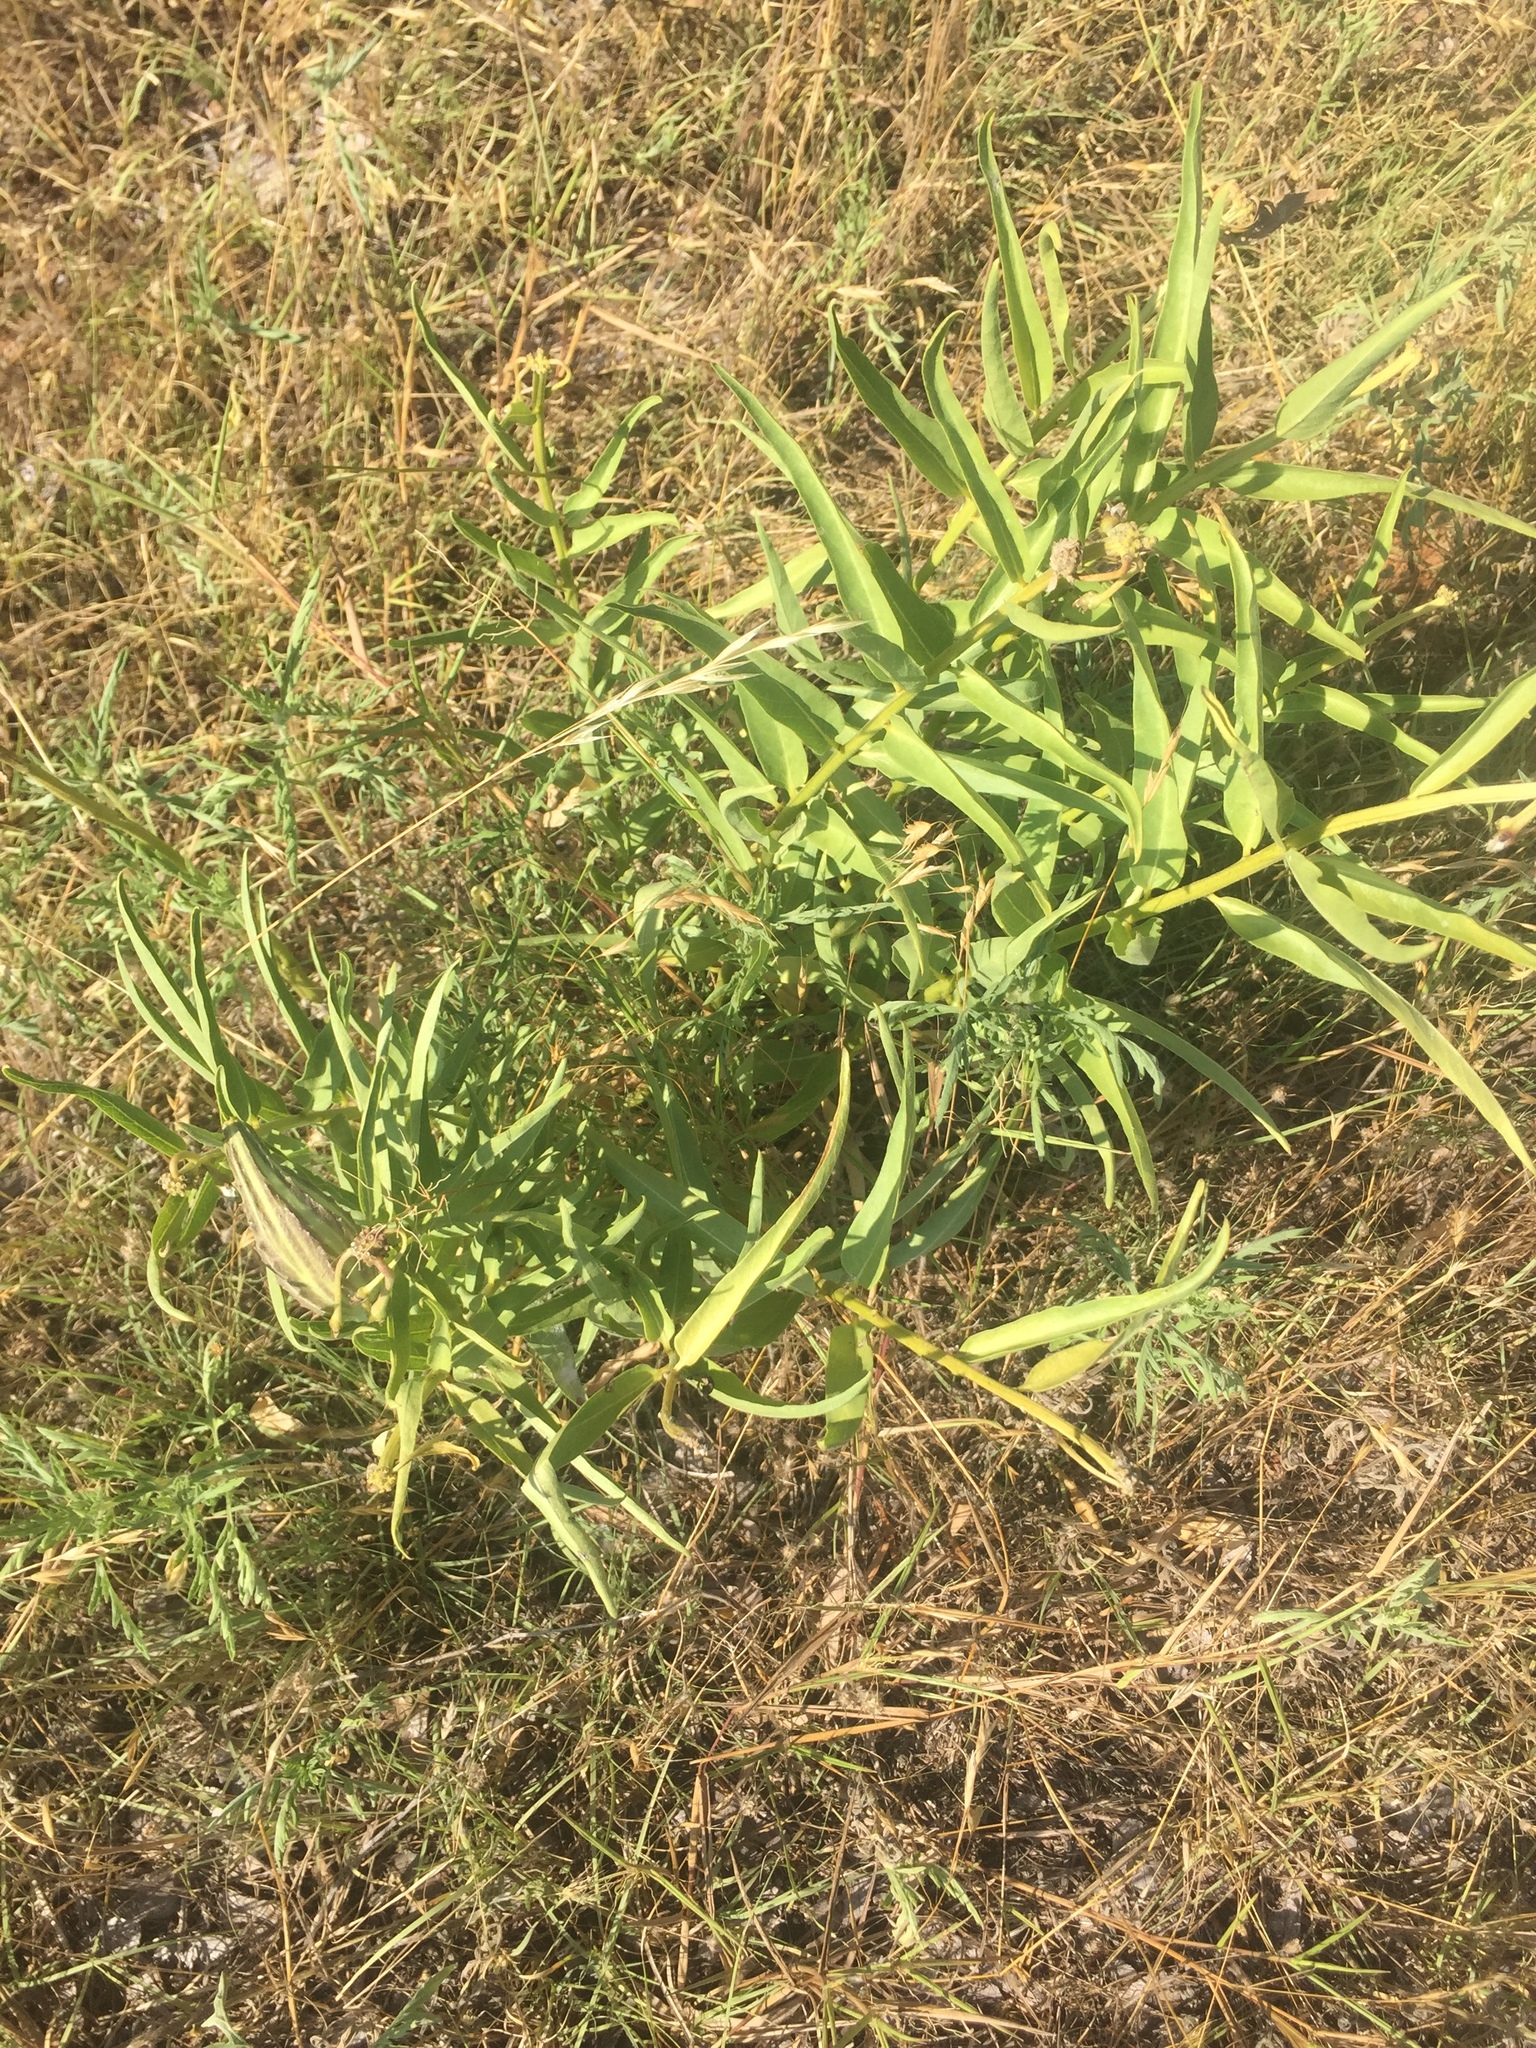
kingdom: Plantae
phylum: Tracheophyta
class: Magnoliopsida
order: Gentianales
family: Apocynaceae
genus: Asclepias
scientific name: Asclepias asperula
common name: Antelope horns
